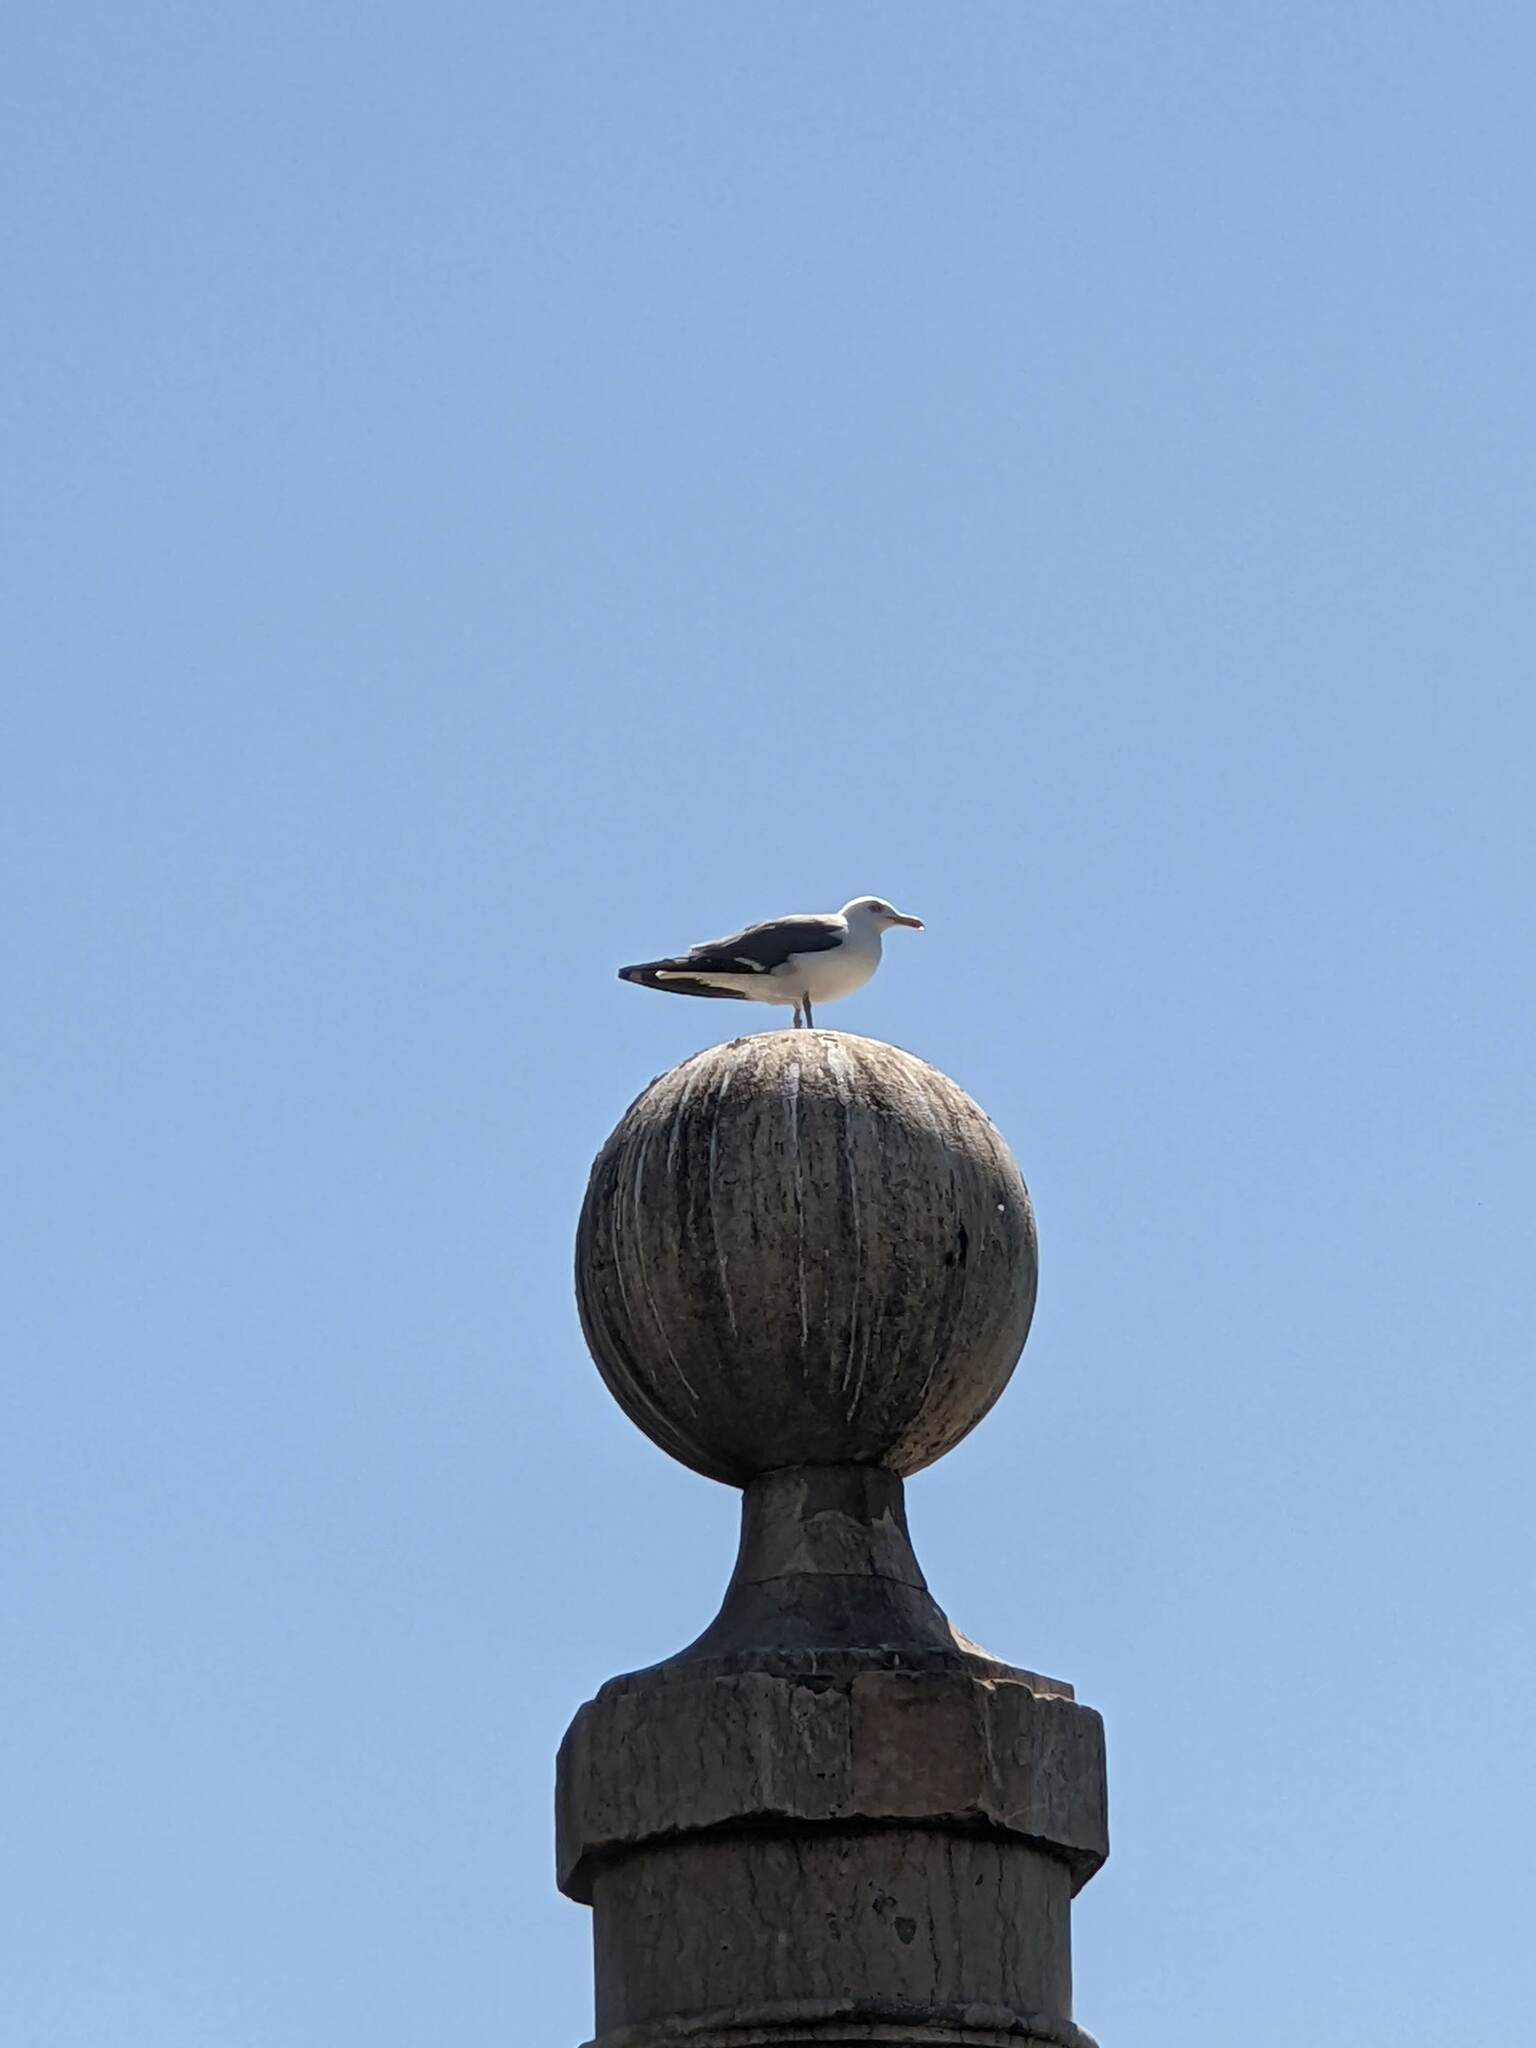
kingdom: Animalia
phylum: Chordata
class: Aves
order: Charadriiformes
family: Laridae
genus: Larus
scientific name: Larus fuscus
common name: Lesser black-backed gull
